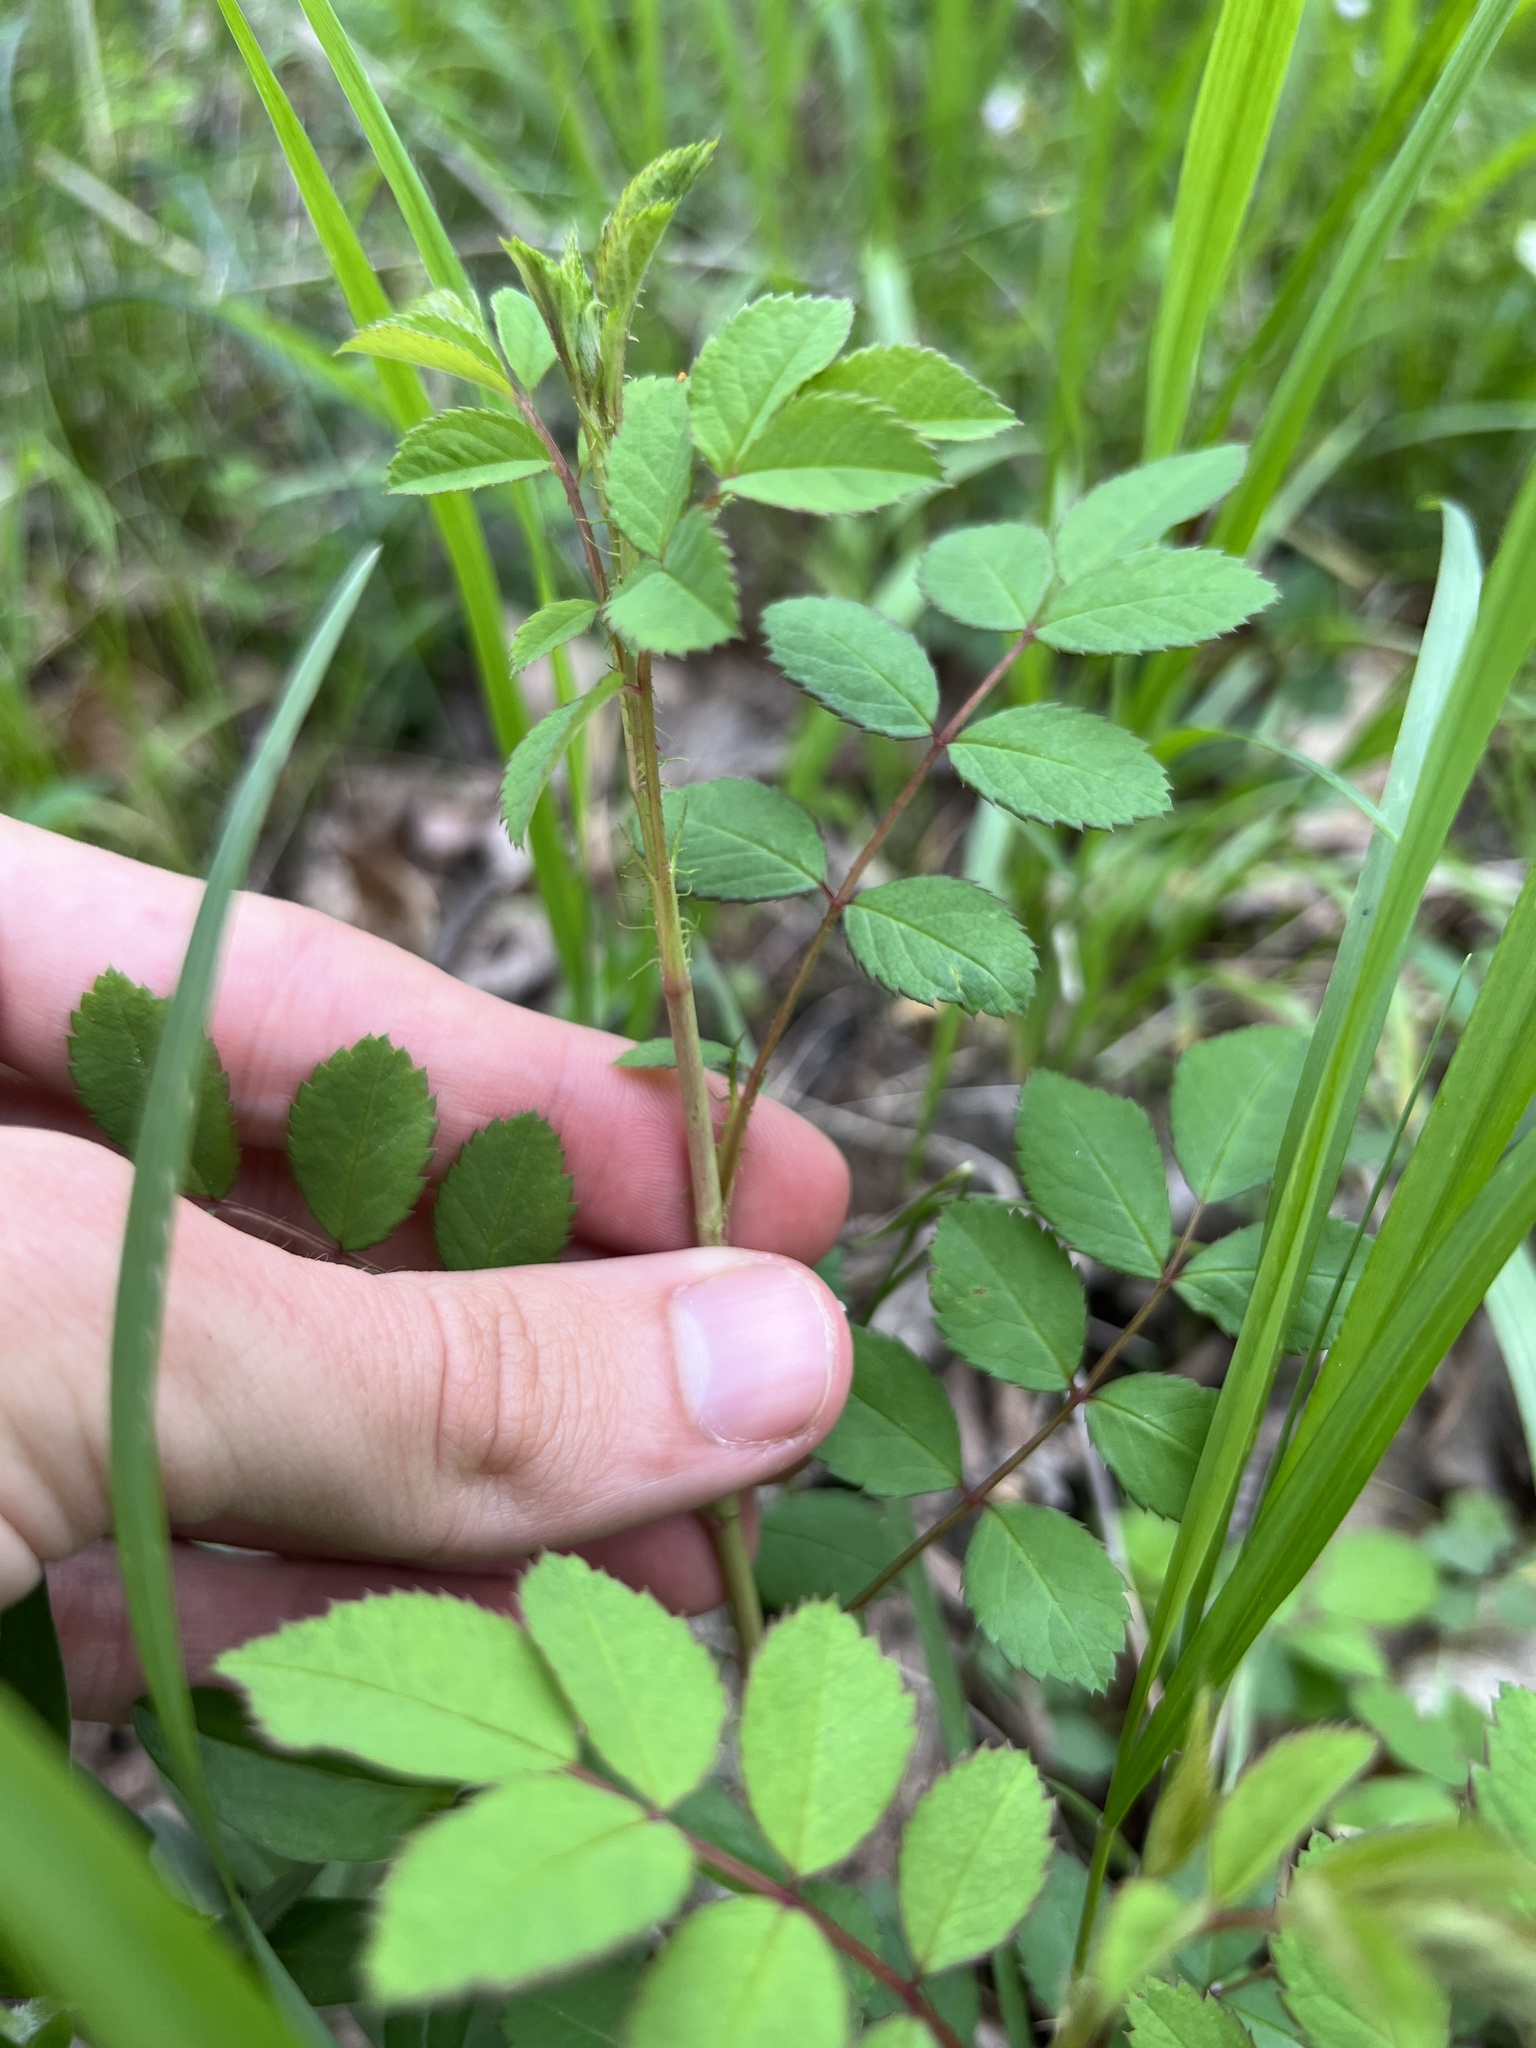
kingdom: Plantae
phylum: Tracheophyta
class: Magnoliopsida
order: Rosales
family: Rosaceae
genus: Rosa
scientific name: Rosa multiflora
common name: Multiflora rose
